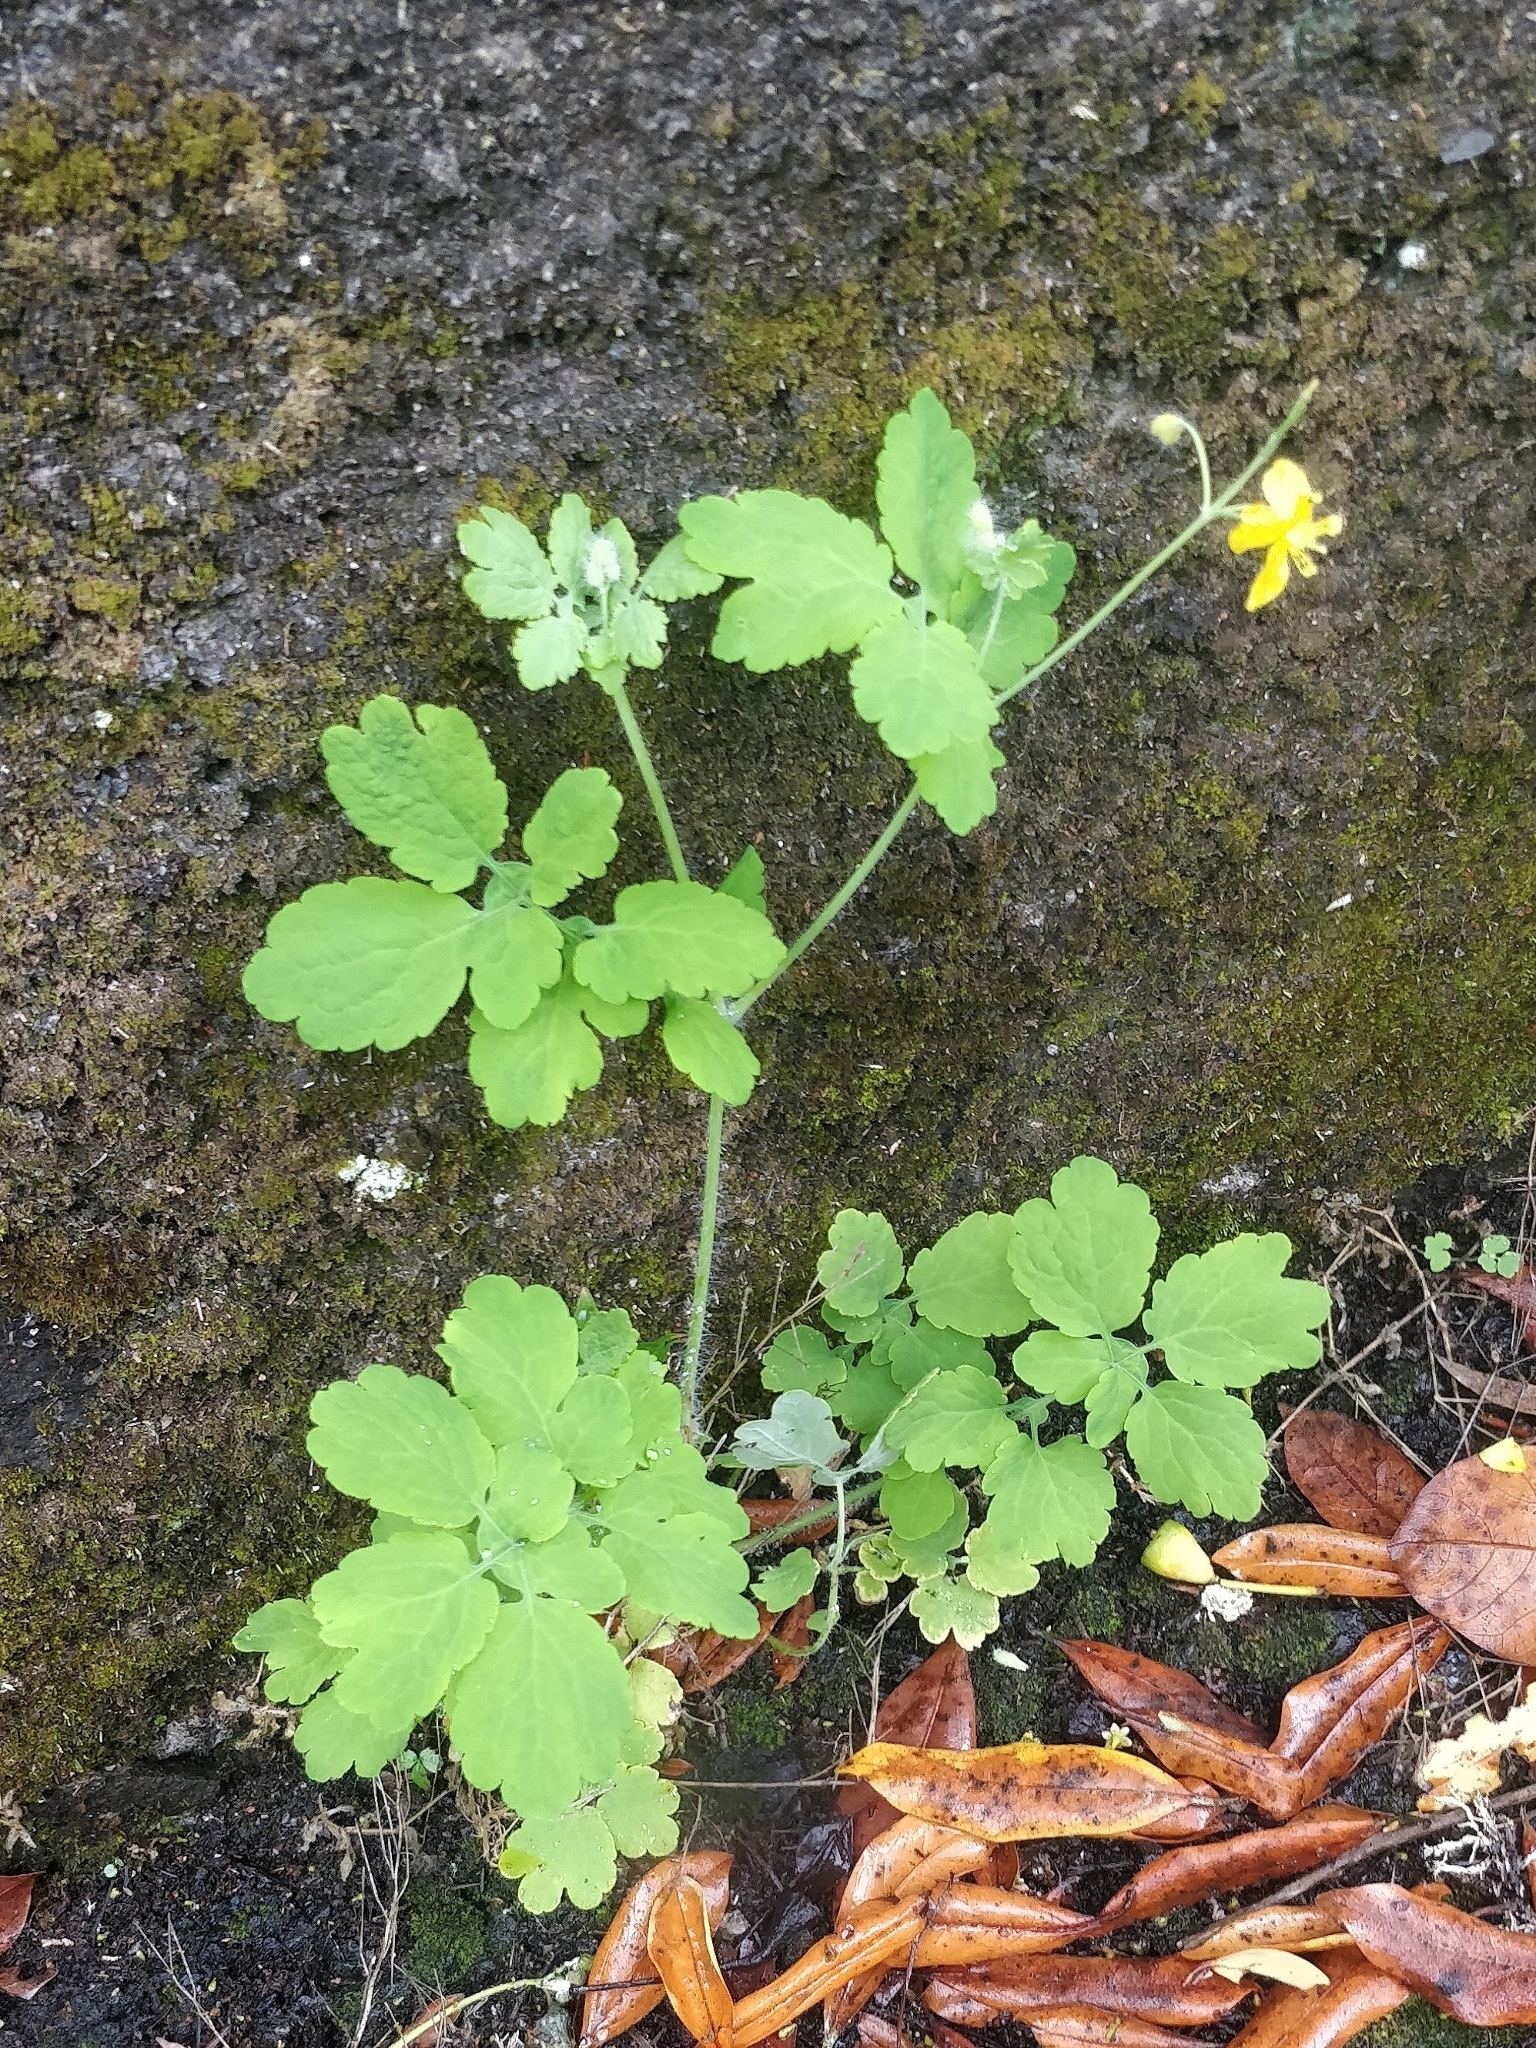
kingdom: Plantae
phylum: Tracheophyta
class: Magnoliopsida
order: Ranunculales
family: Papaveraceae
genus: Chelidonium
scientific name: Chelidonium majus
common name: Greater celandine
